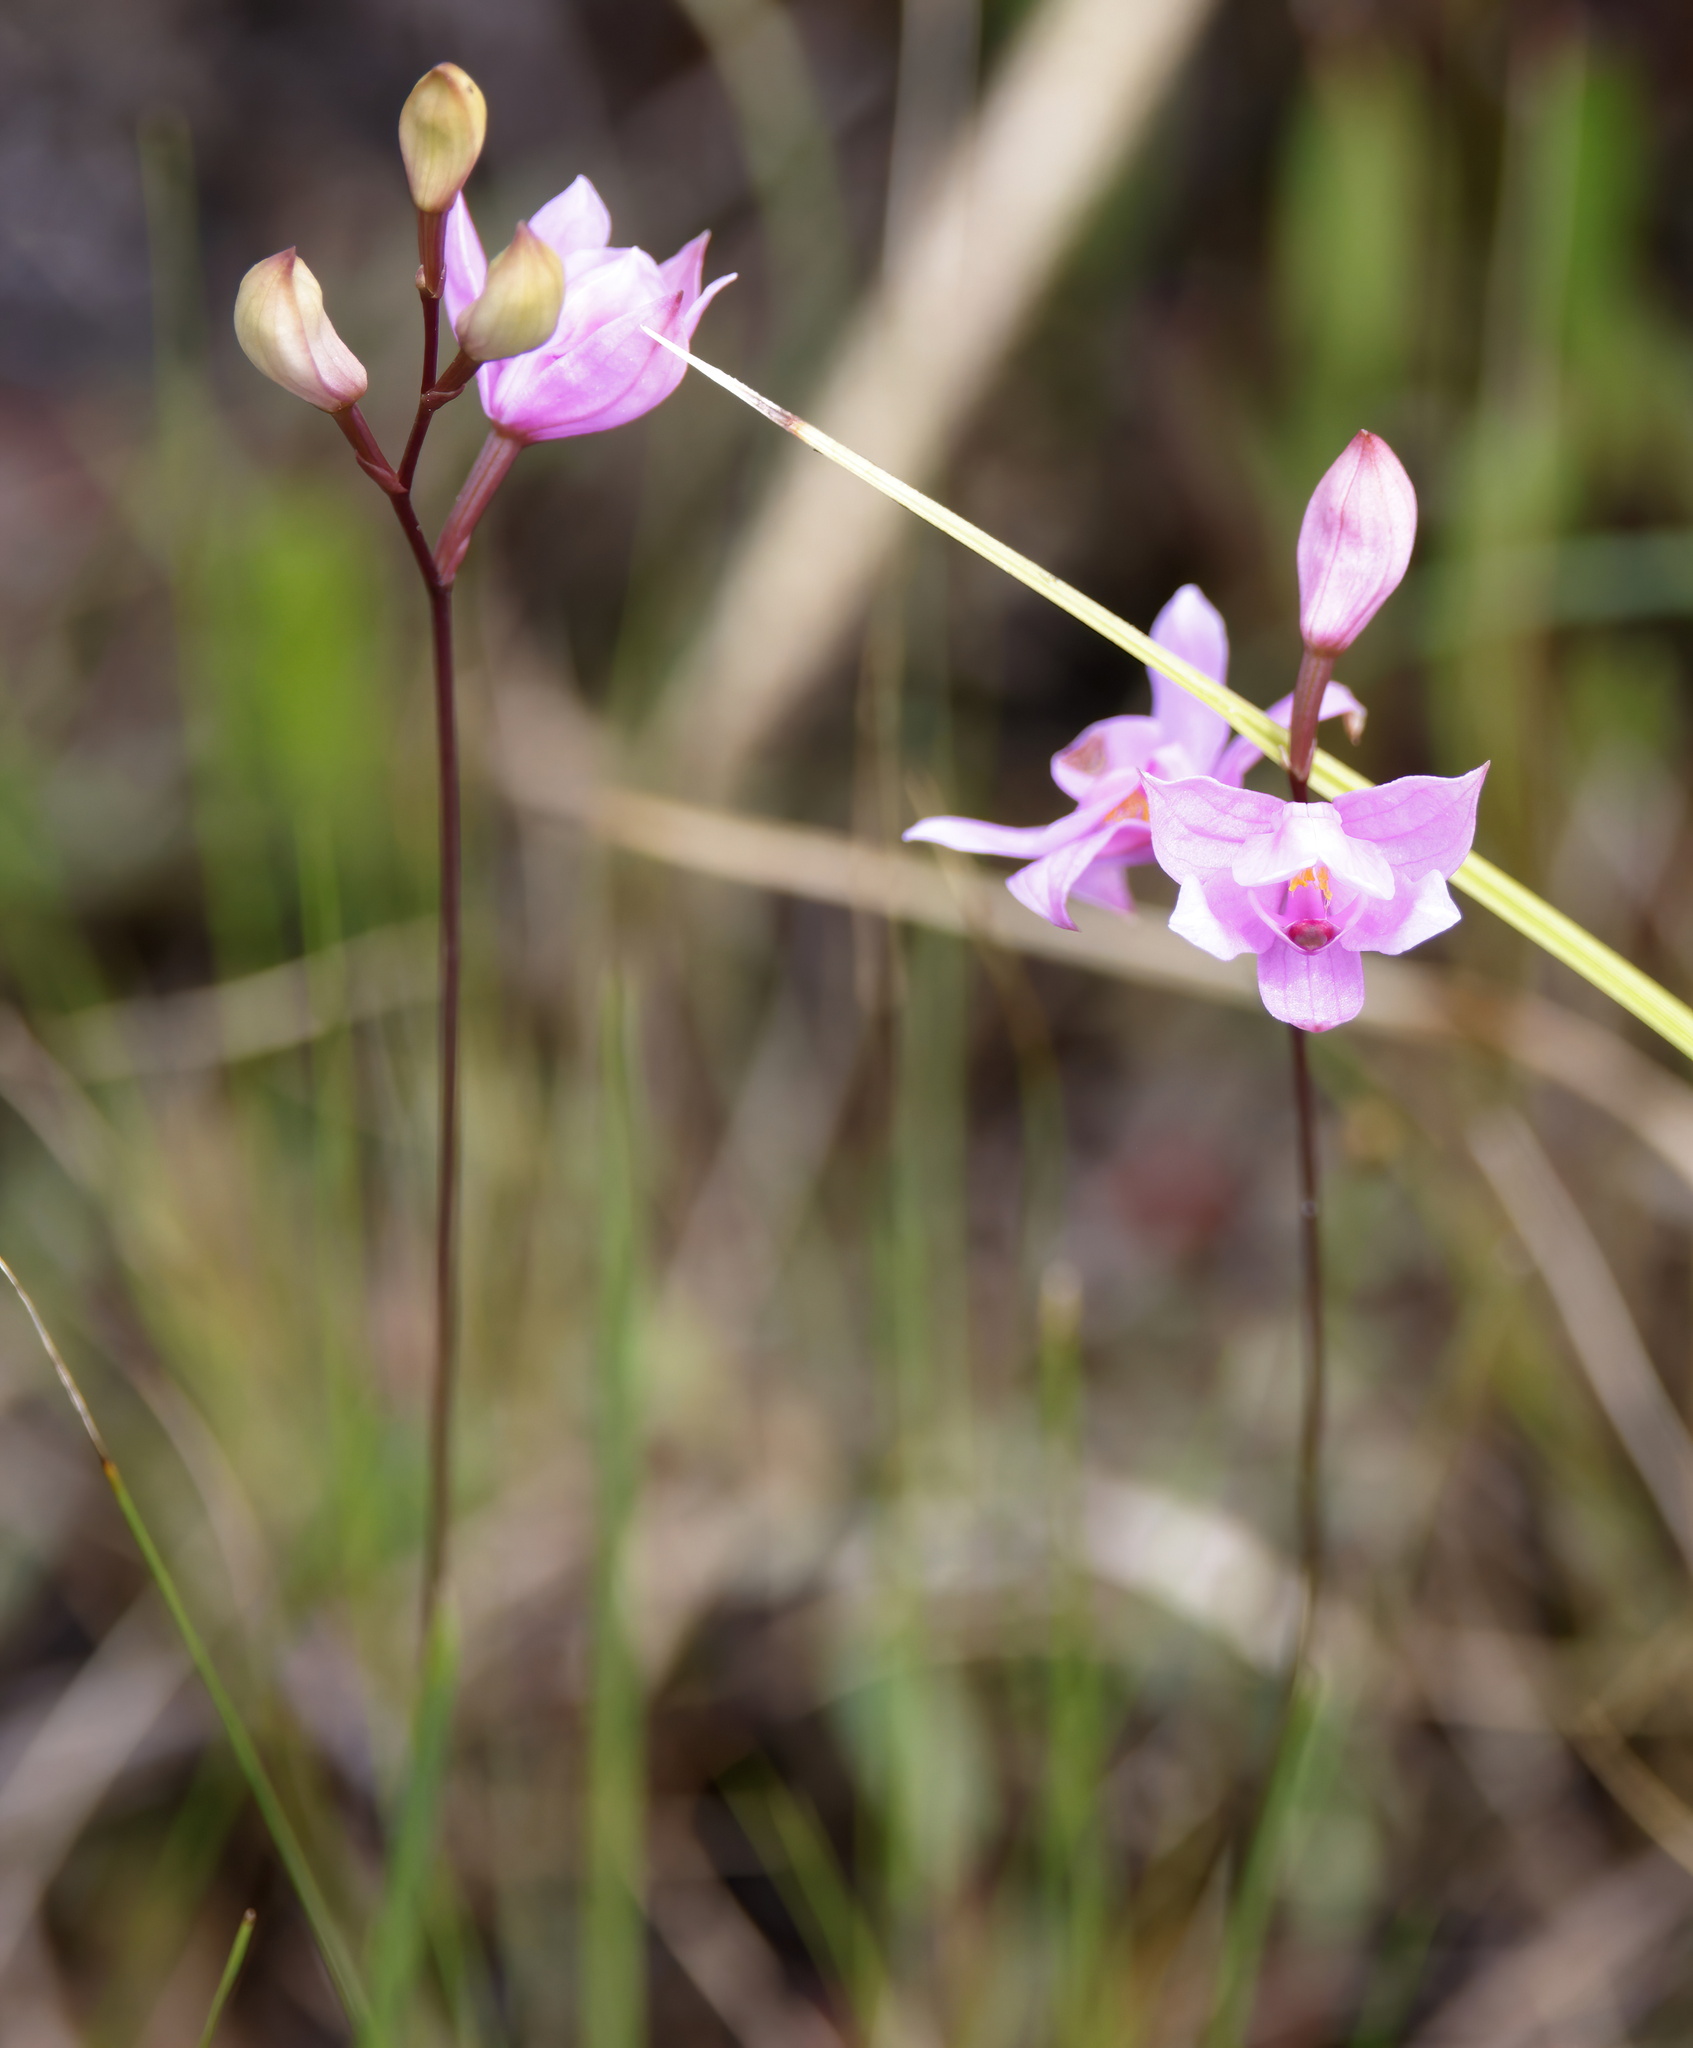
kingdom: Plantae
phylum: Tracheophyta
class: Liliopsida
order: Asparagales
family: Orchidaceae
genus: Calopogon
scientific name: Calopogon barbatus
